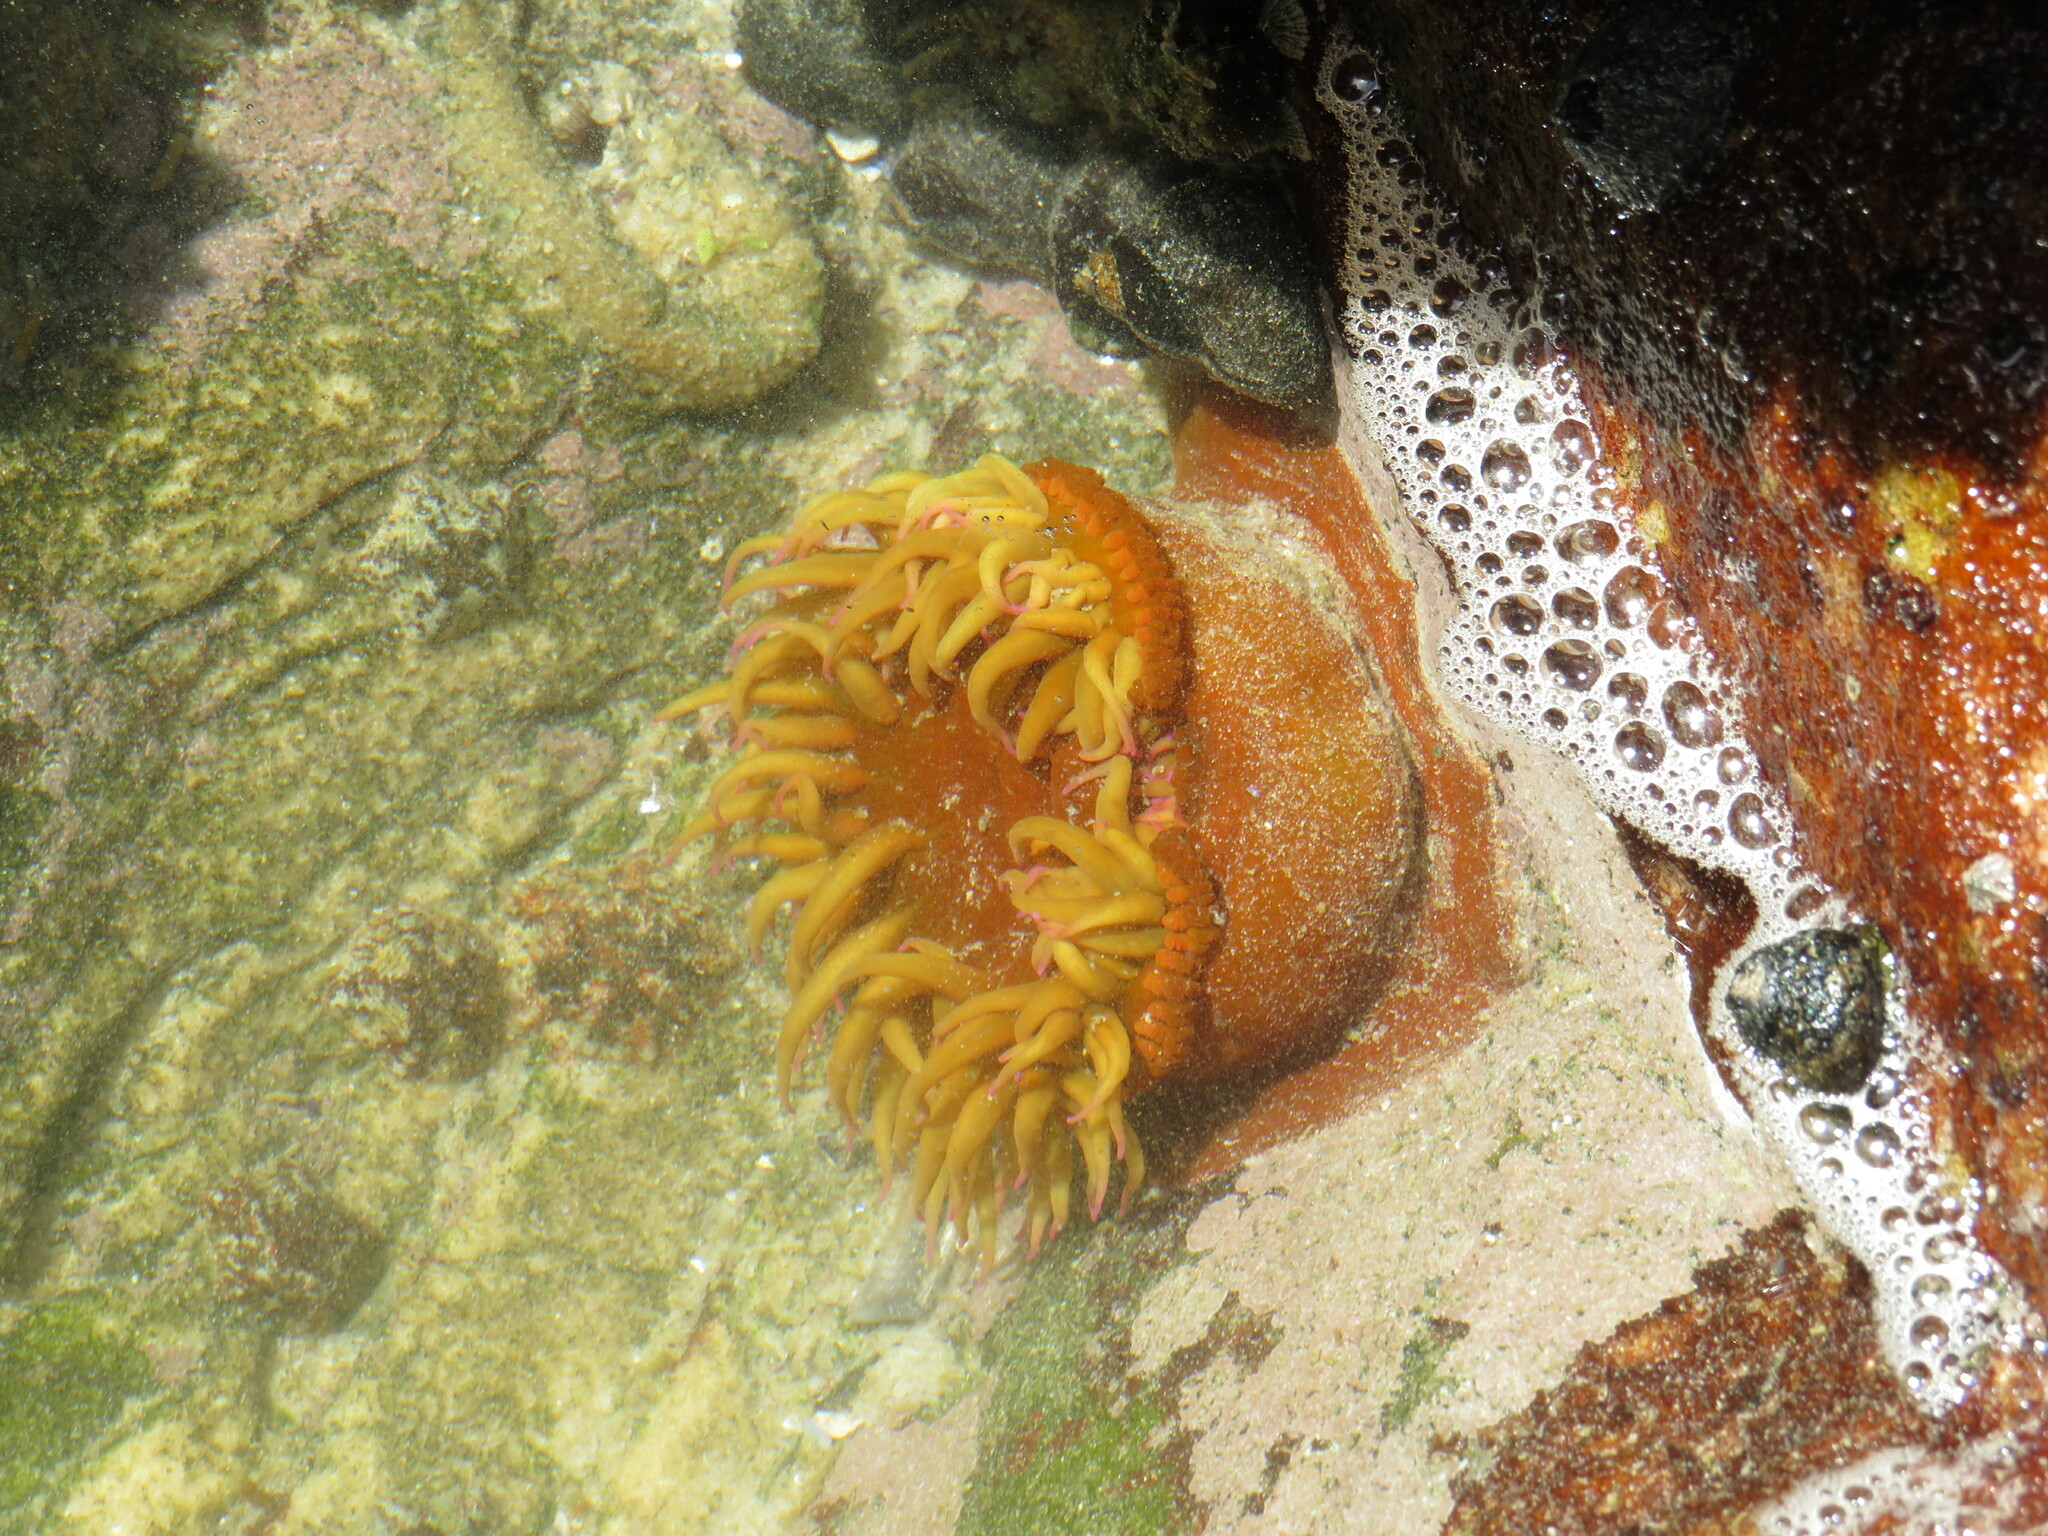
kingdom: Animalia
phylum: Cnidaria
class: Anthozoa
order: Actiniaria
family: Actiniidae
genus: Pseudactinia
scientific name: Pseudactinia flagellifera
